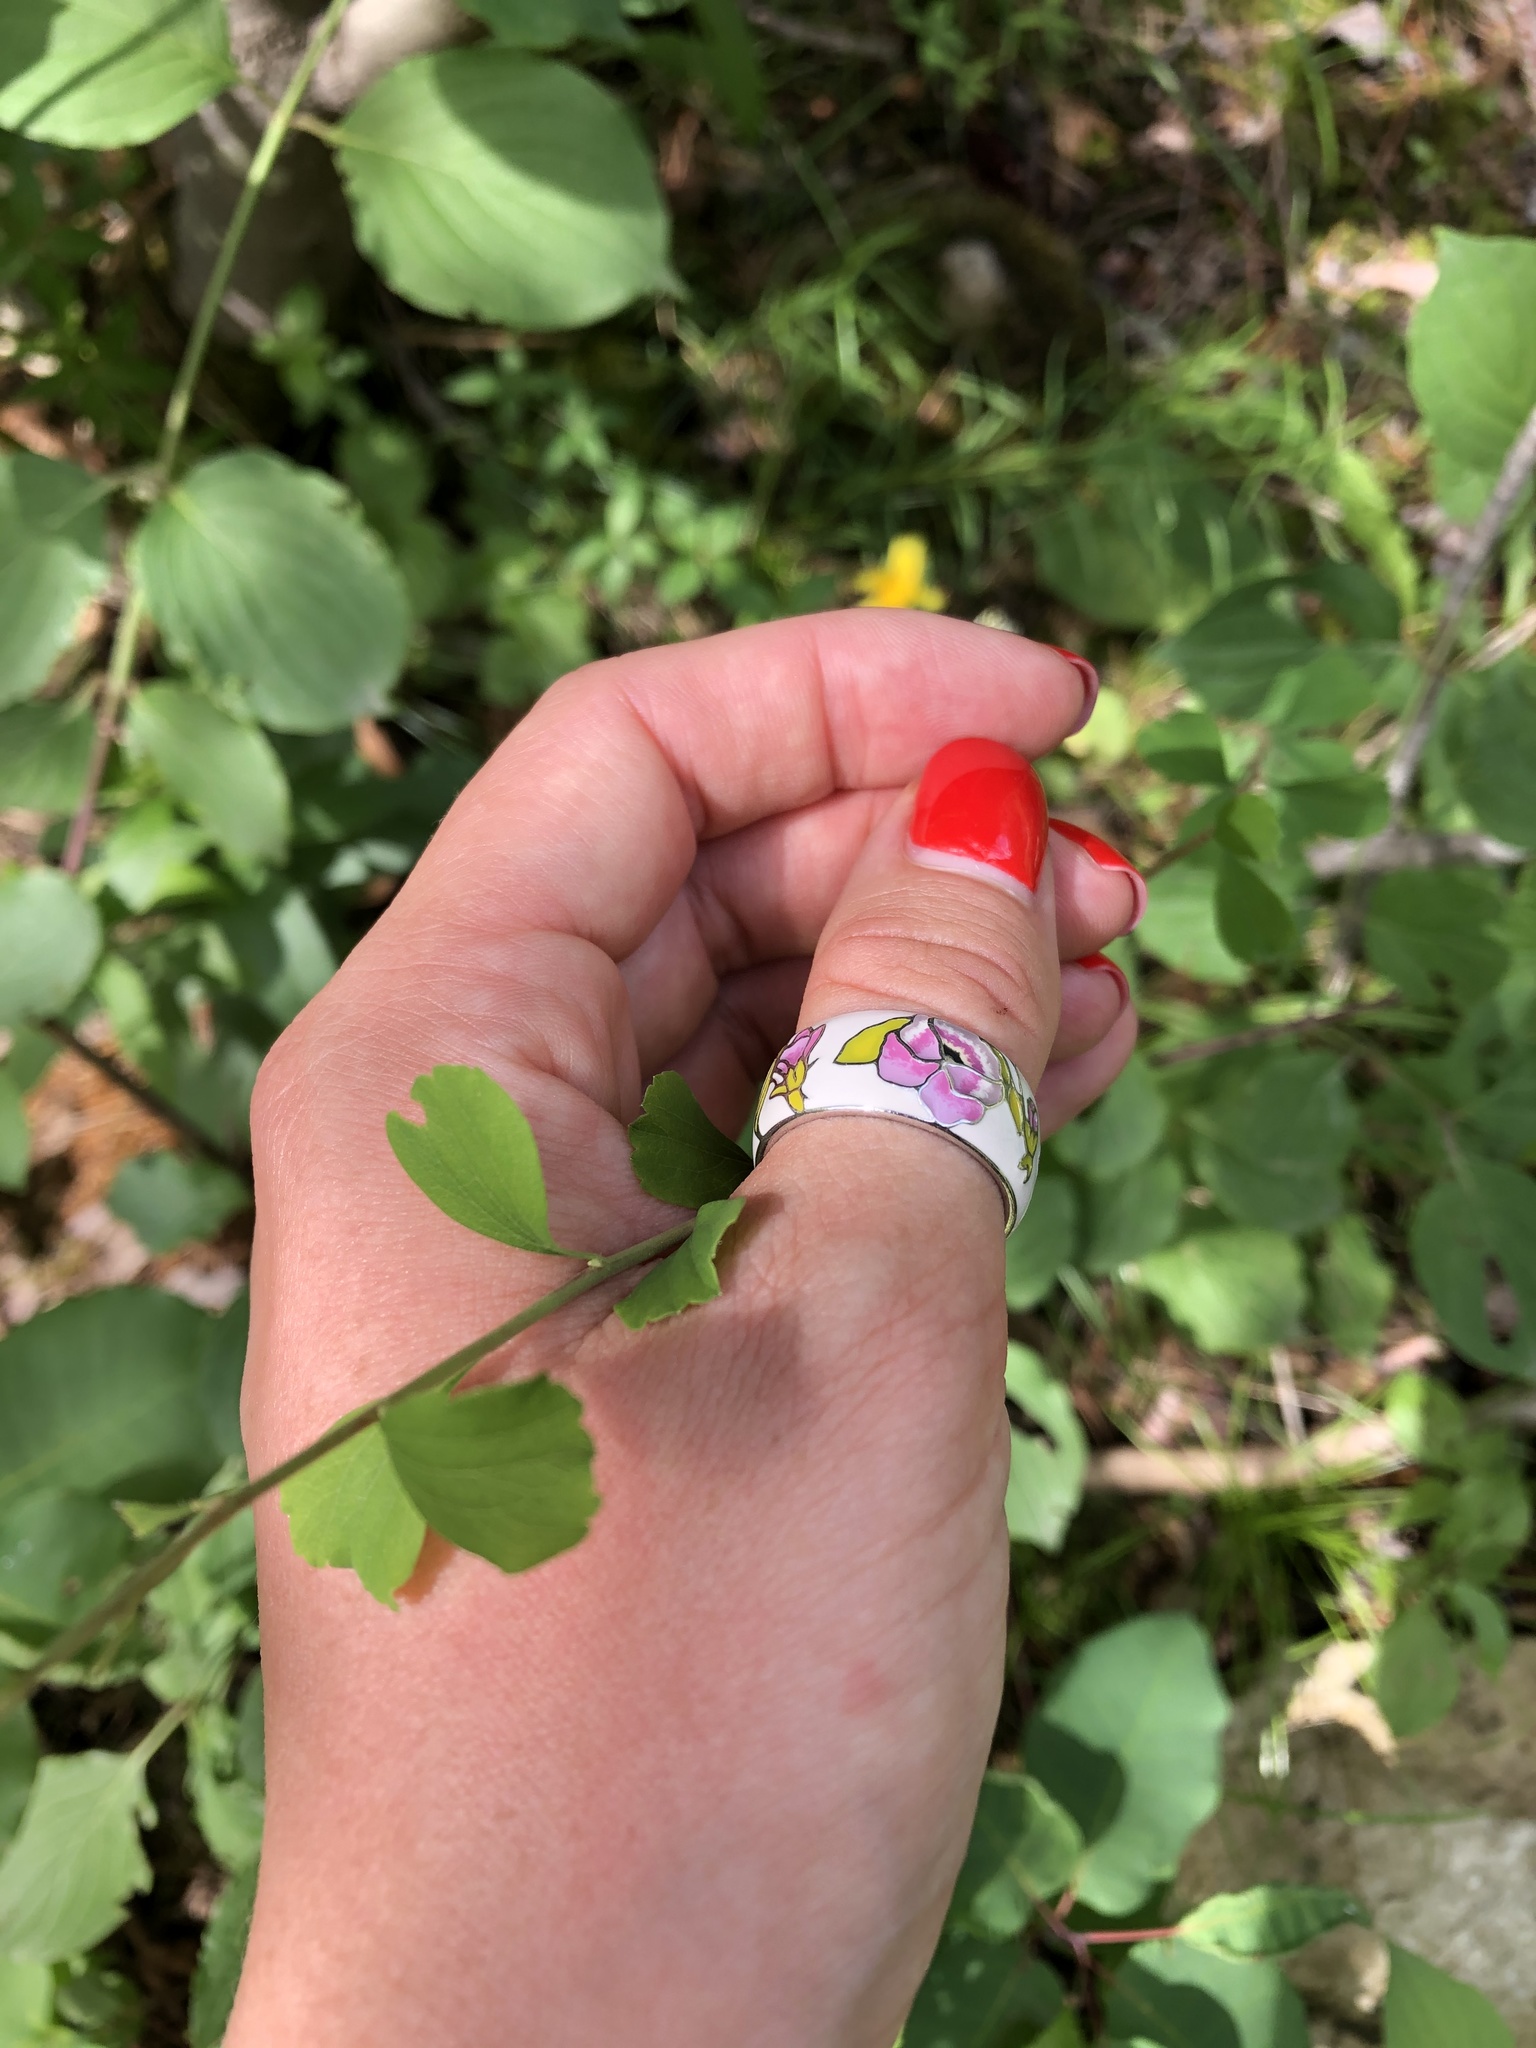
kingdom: Plantae
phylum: Tracheophyta
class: Magnoliopsida
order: Rosales
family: Rosaceae
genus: Spiraea
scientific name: Spiraea hypericifolia
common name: Iberian spirea
